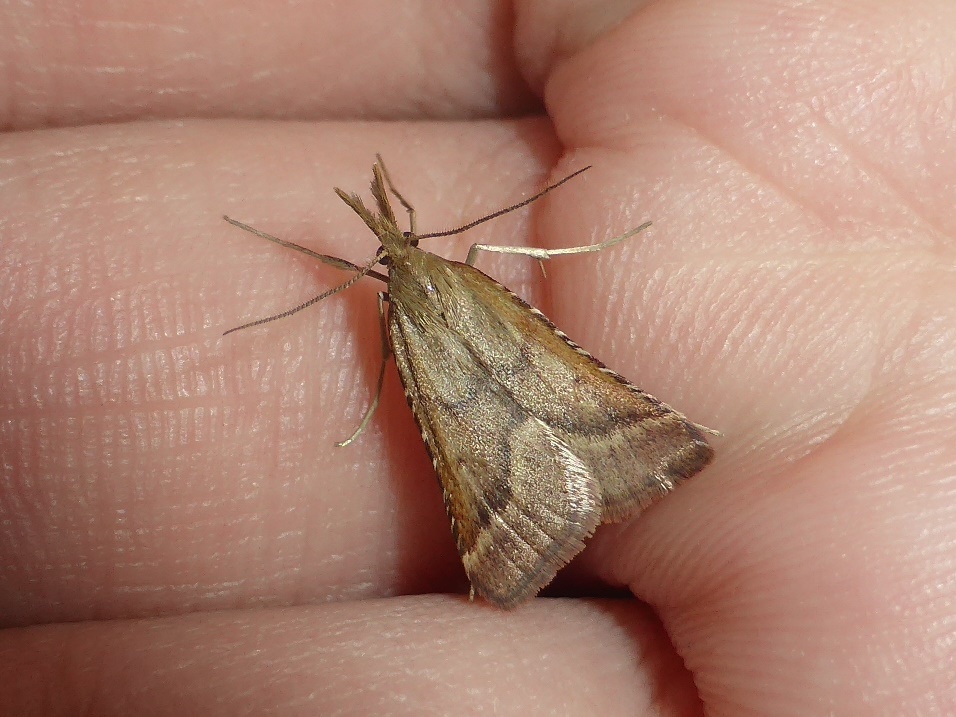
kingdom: Animalia
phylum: Arthropoda
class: Insecta
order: Lepidoptera
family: Pyralidae
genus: Synaphe
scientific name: Synaphe punctalis
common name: Long-legged tabby
